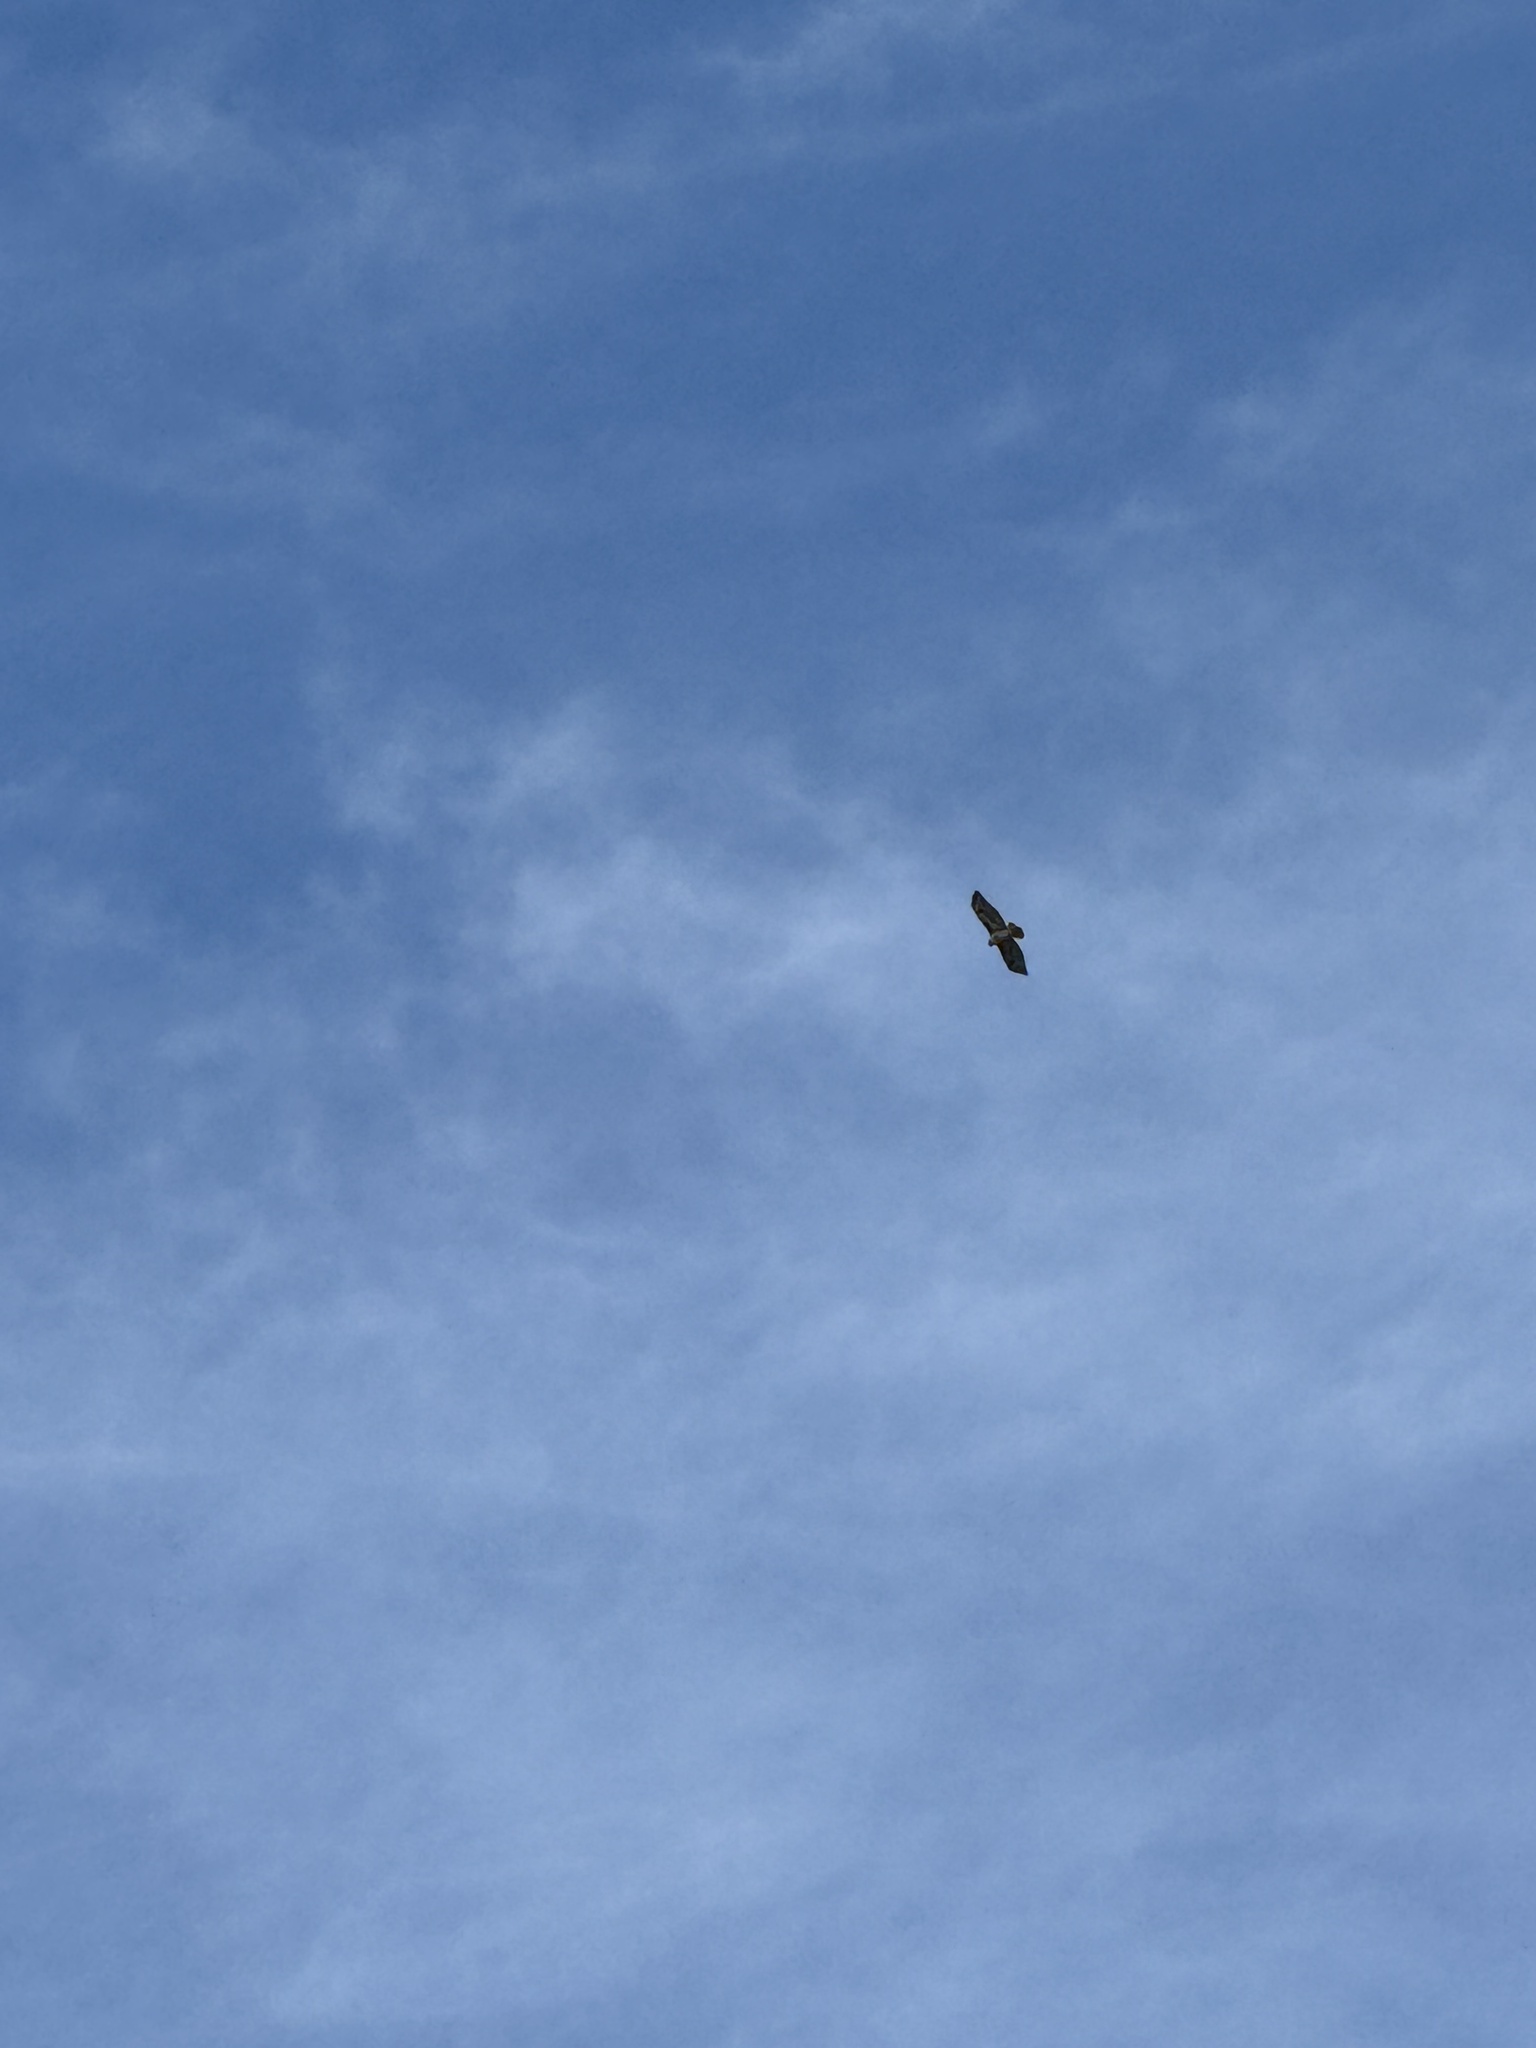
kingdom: Animalia
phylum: Chordata
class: Aves
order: Accipitriformes
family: Accipitridae
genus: Buteo
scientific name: Buteo jamaicensis
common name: Red-tailed hawk
